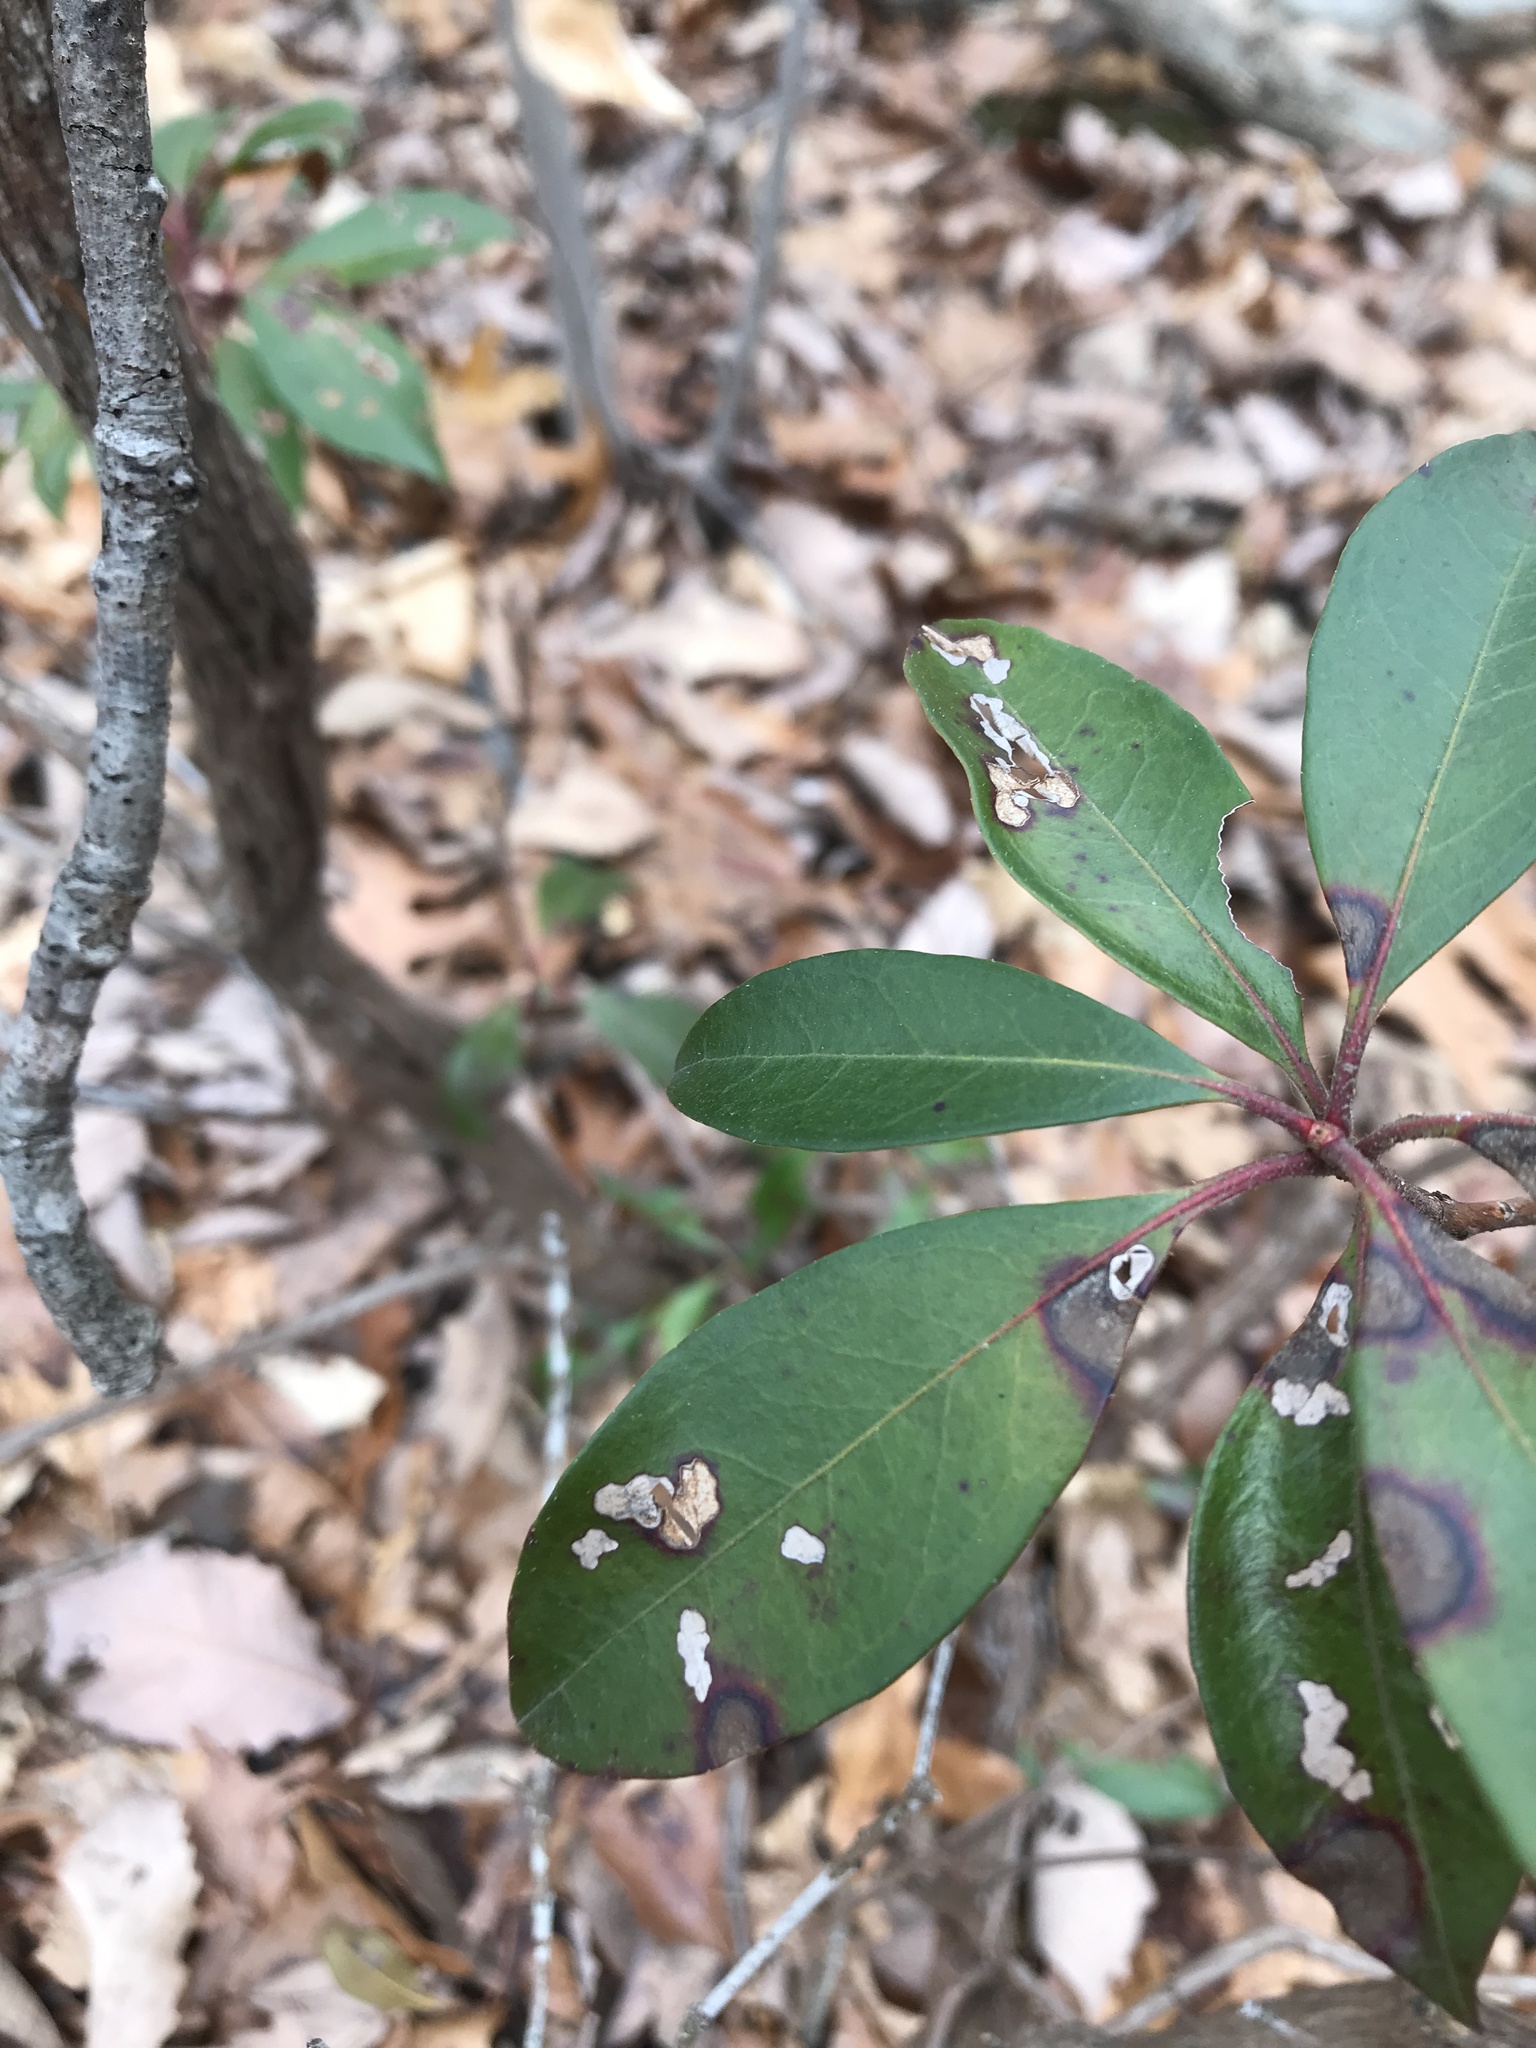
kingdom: Fungi
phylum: Ascomycota
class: Dothideomycetes
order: Mycosphaerellales
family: Mycosphaerellaceae
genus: Mycosphaerella
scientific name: Mycosphaerella colorata
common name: Mountain laurel leaf spot
